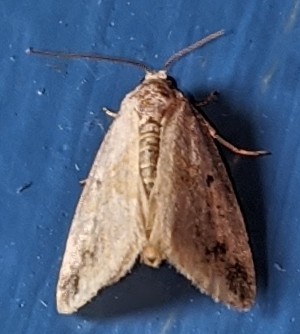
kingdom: Animalia
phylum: Arthropoda
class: Insecta
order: Lepidoptera
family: Noctuidae
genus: Maliattha
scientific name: Maliattha synochitis
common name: Black-dotted glyph
